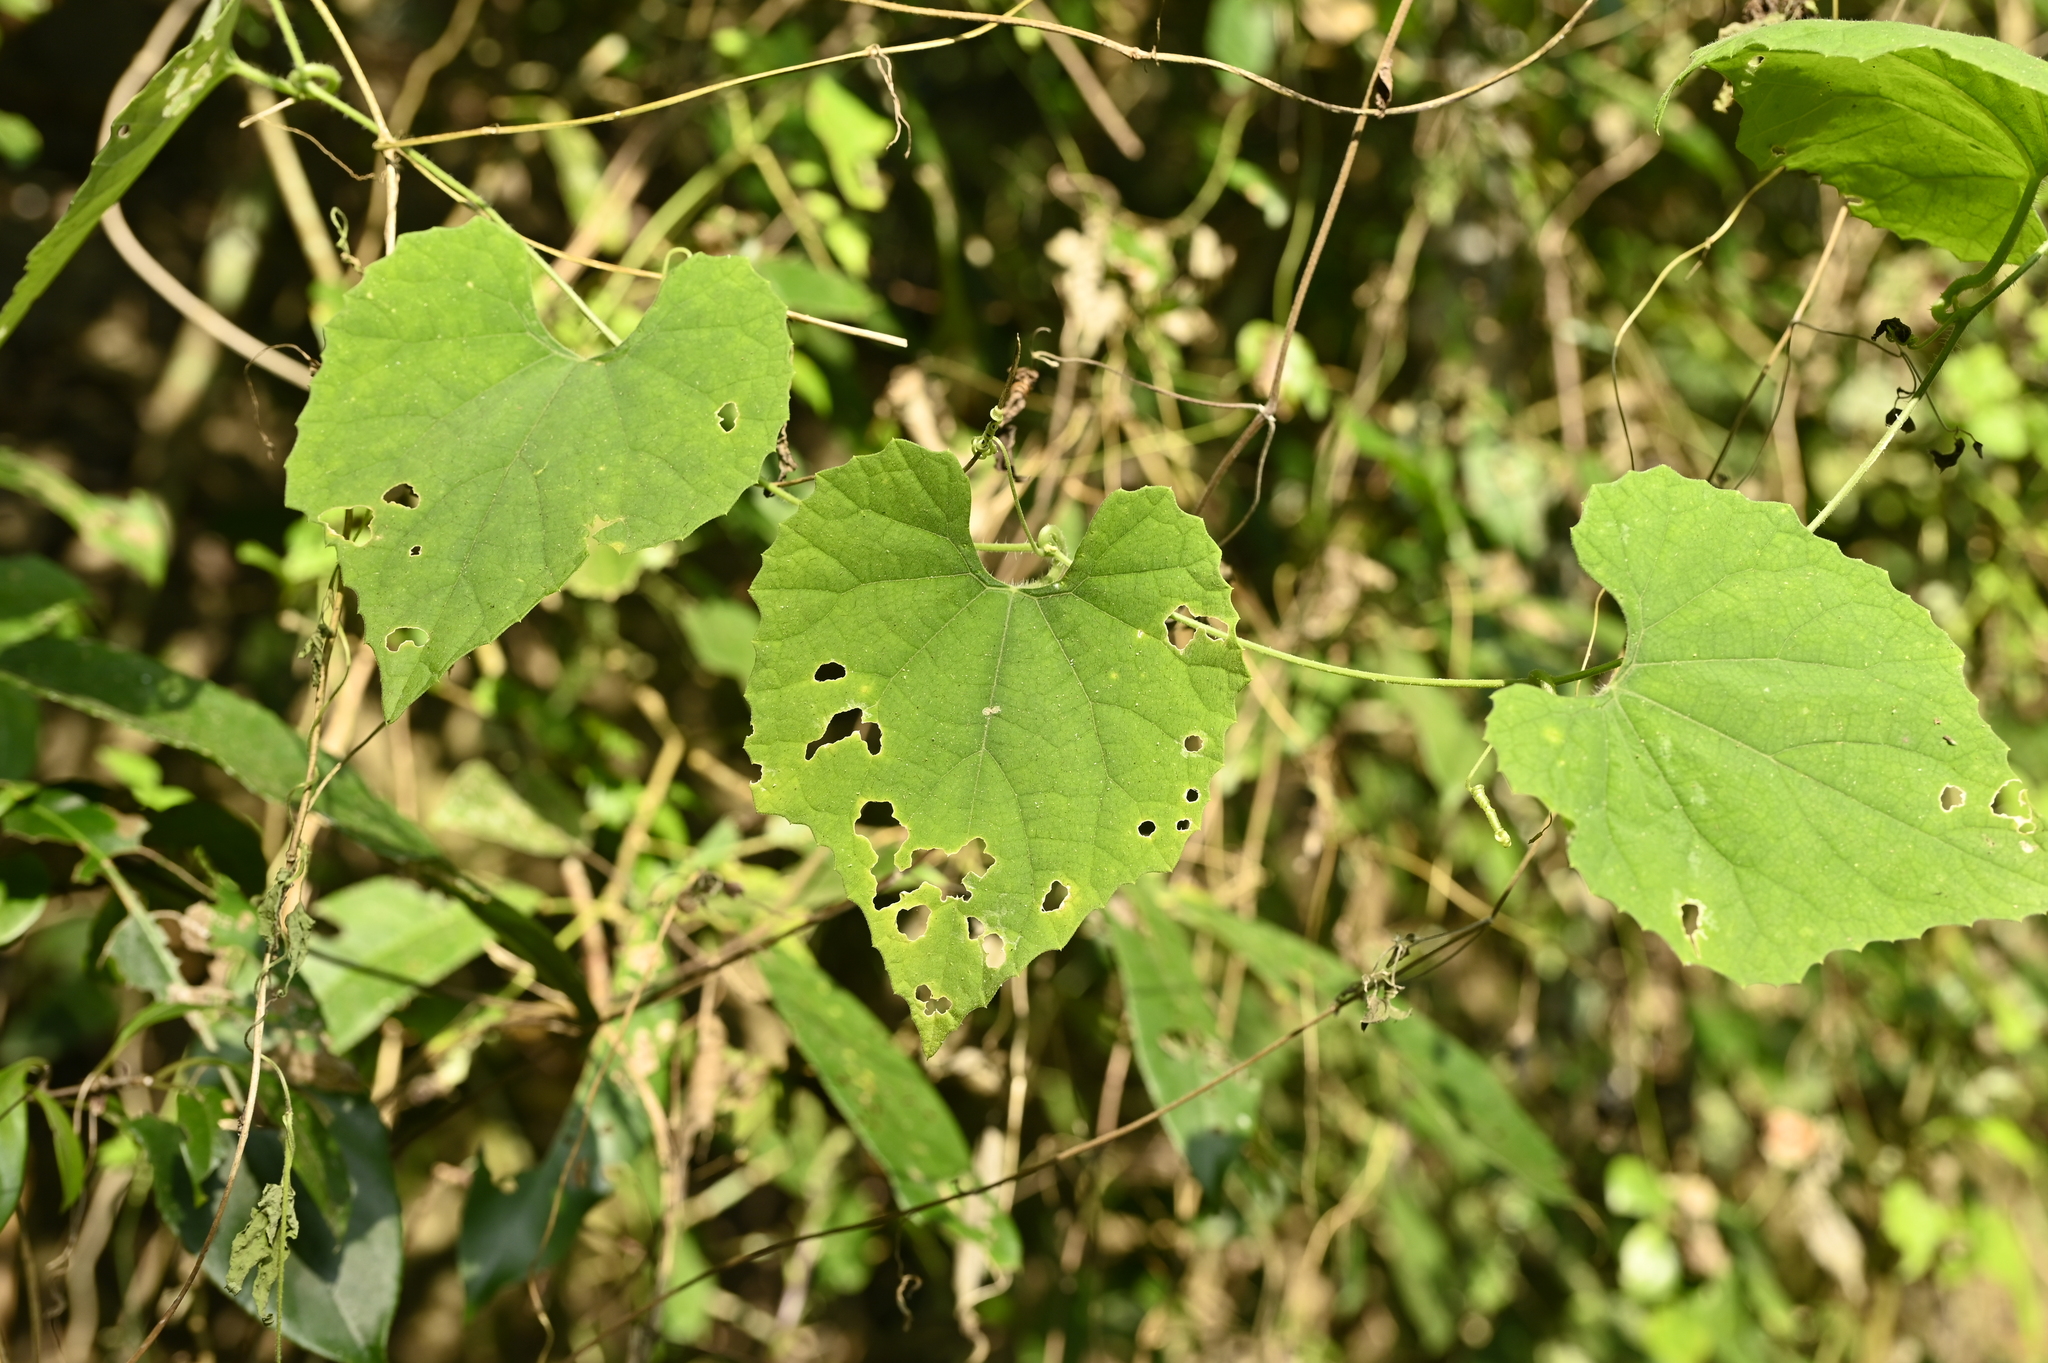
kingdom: Plantae
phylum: Tracheophyta
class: Magnoliopsida
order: Cucurbitales
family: Cucurbitaceae
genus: Trichosanthes
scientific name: Trichosanthes cucumeroides
